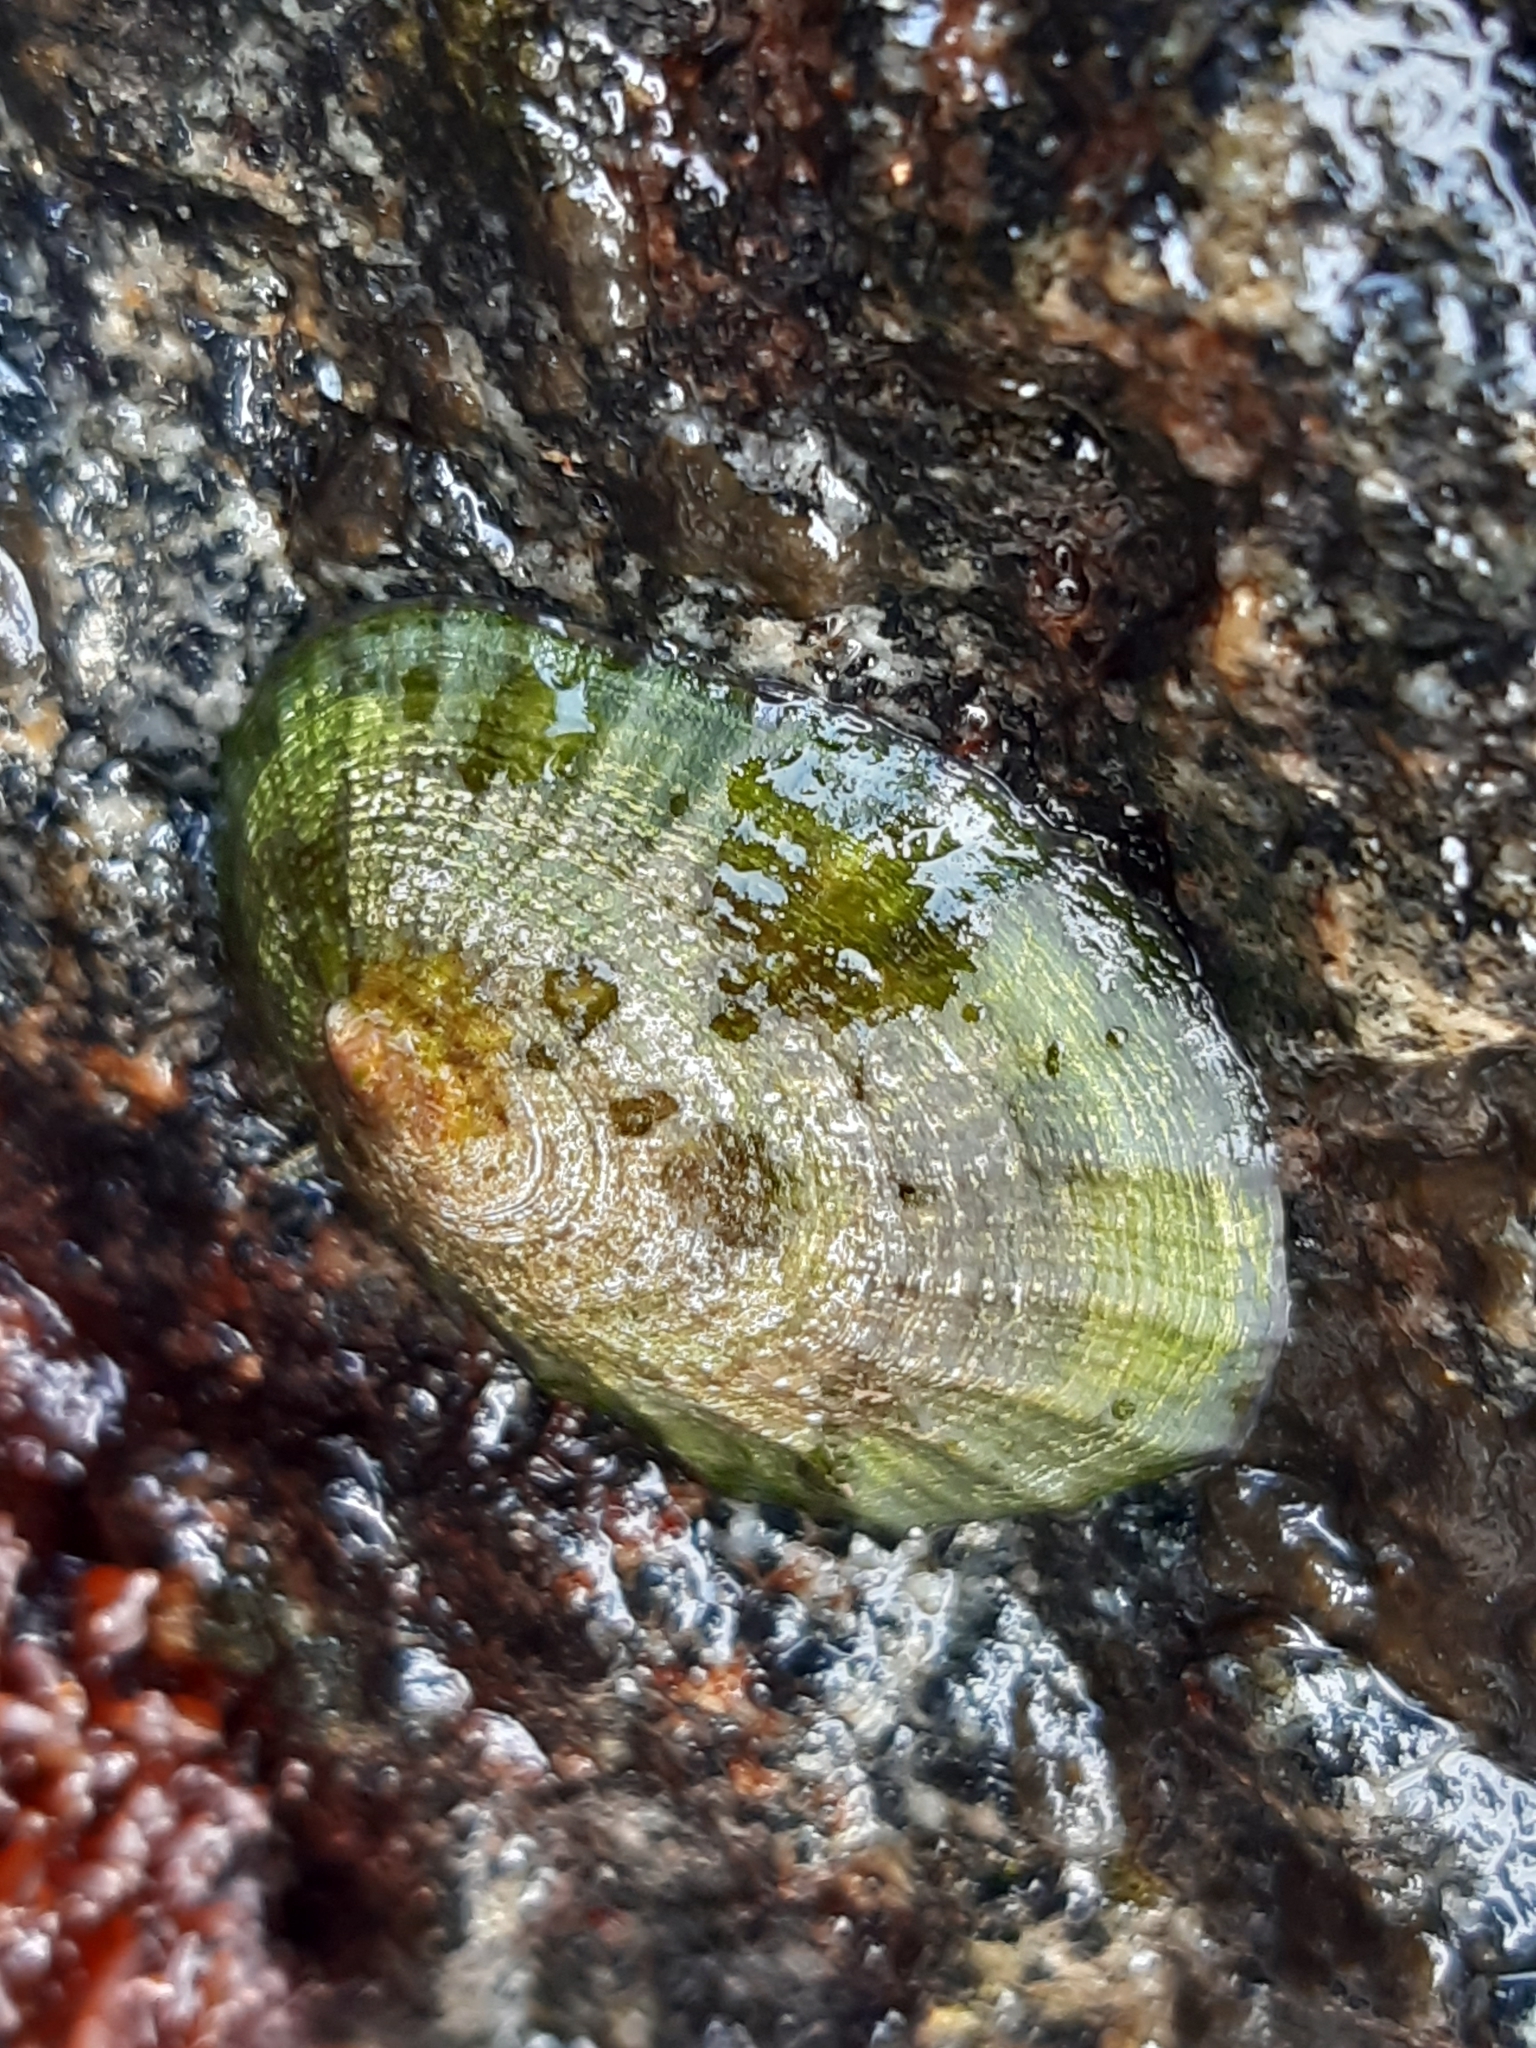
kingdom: Animalia
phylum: Mollusca
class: Gastropoda
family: Nacellidae
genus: Cellana
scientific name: Cellana radians
